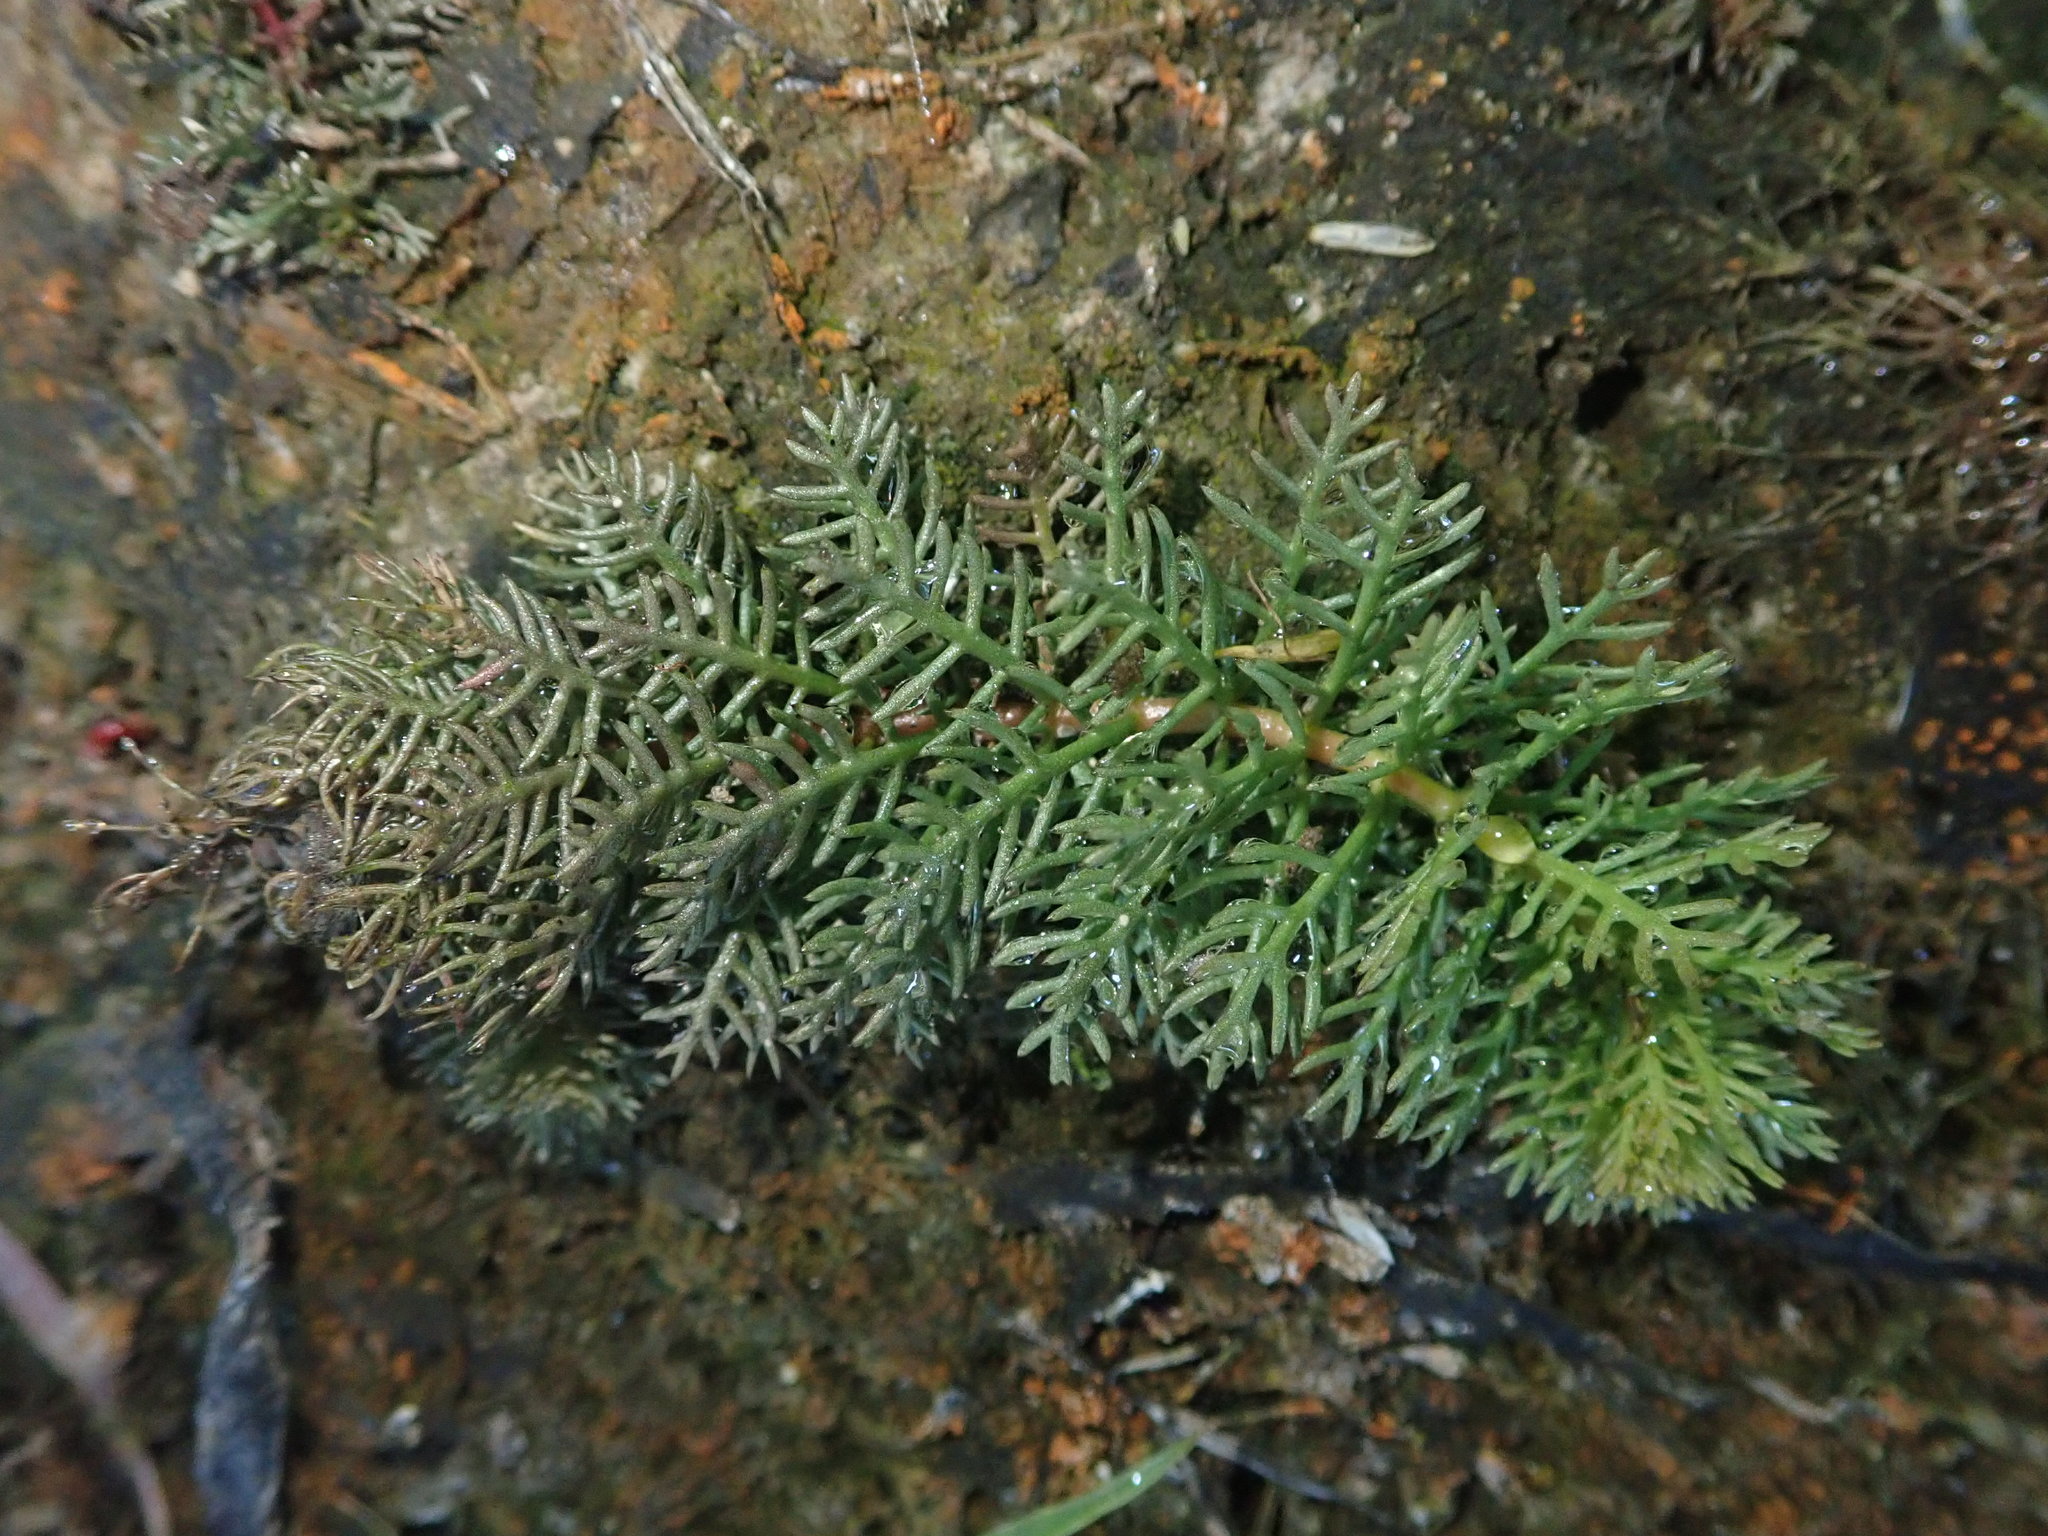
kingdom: Plantae
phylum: Tracheophyta
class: Magnoliopsida
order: Saxifragales
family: Haloragaceae
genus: Myriophyllum
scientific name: Myriophyllum verticillatum
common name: Whorled water-milfoil
